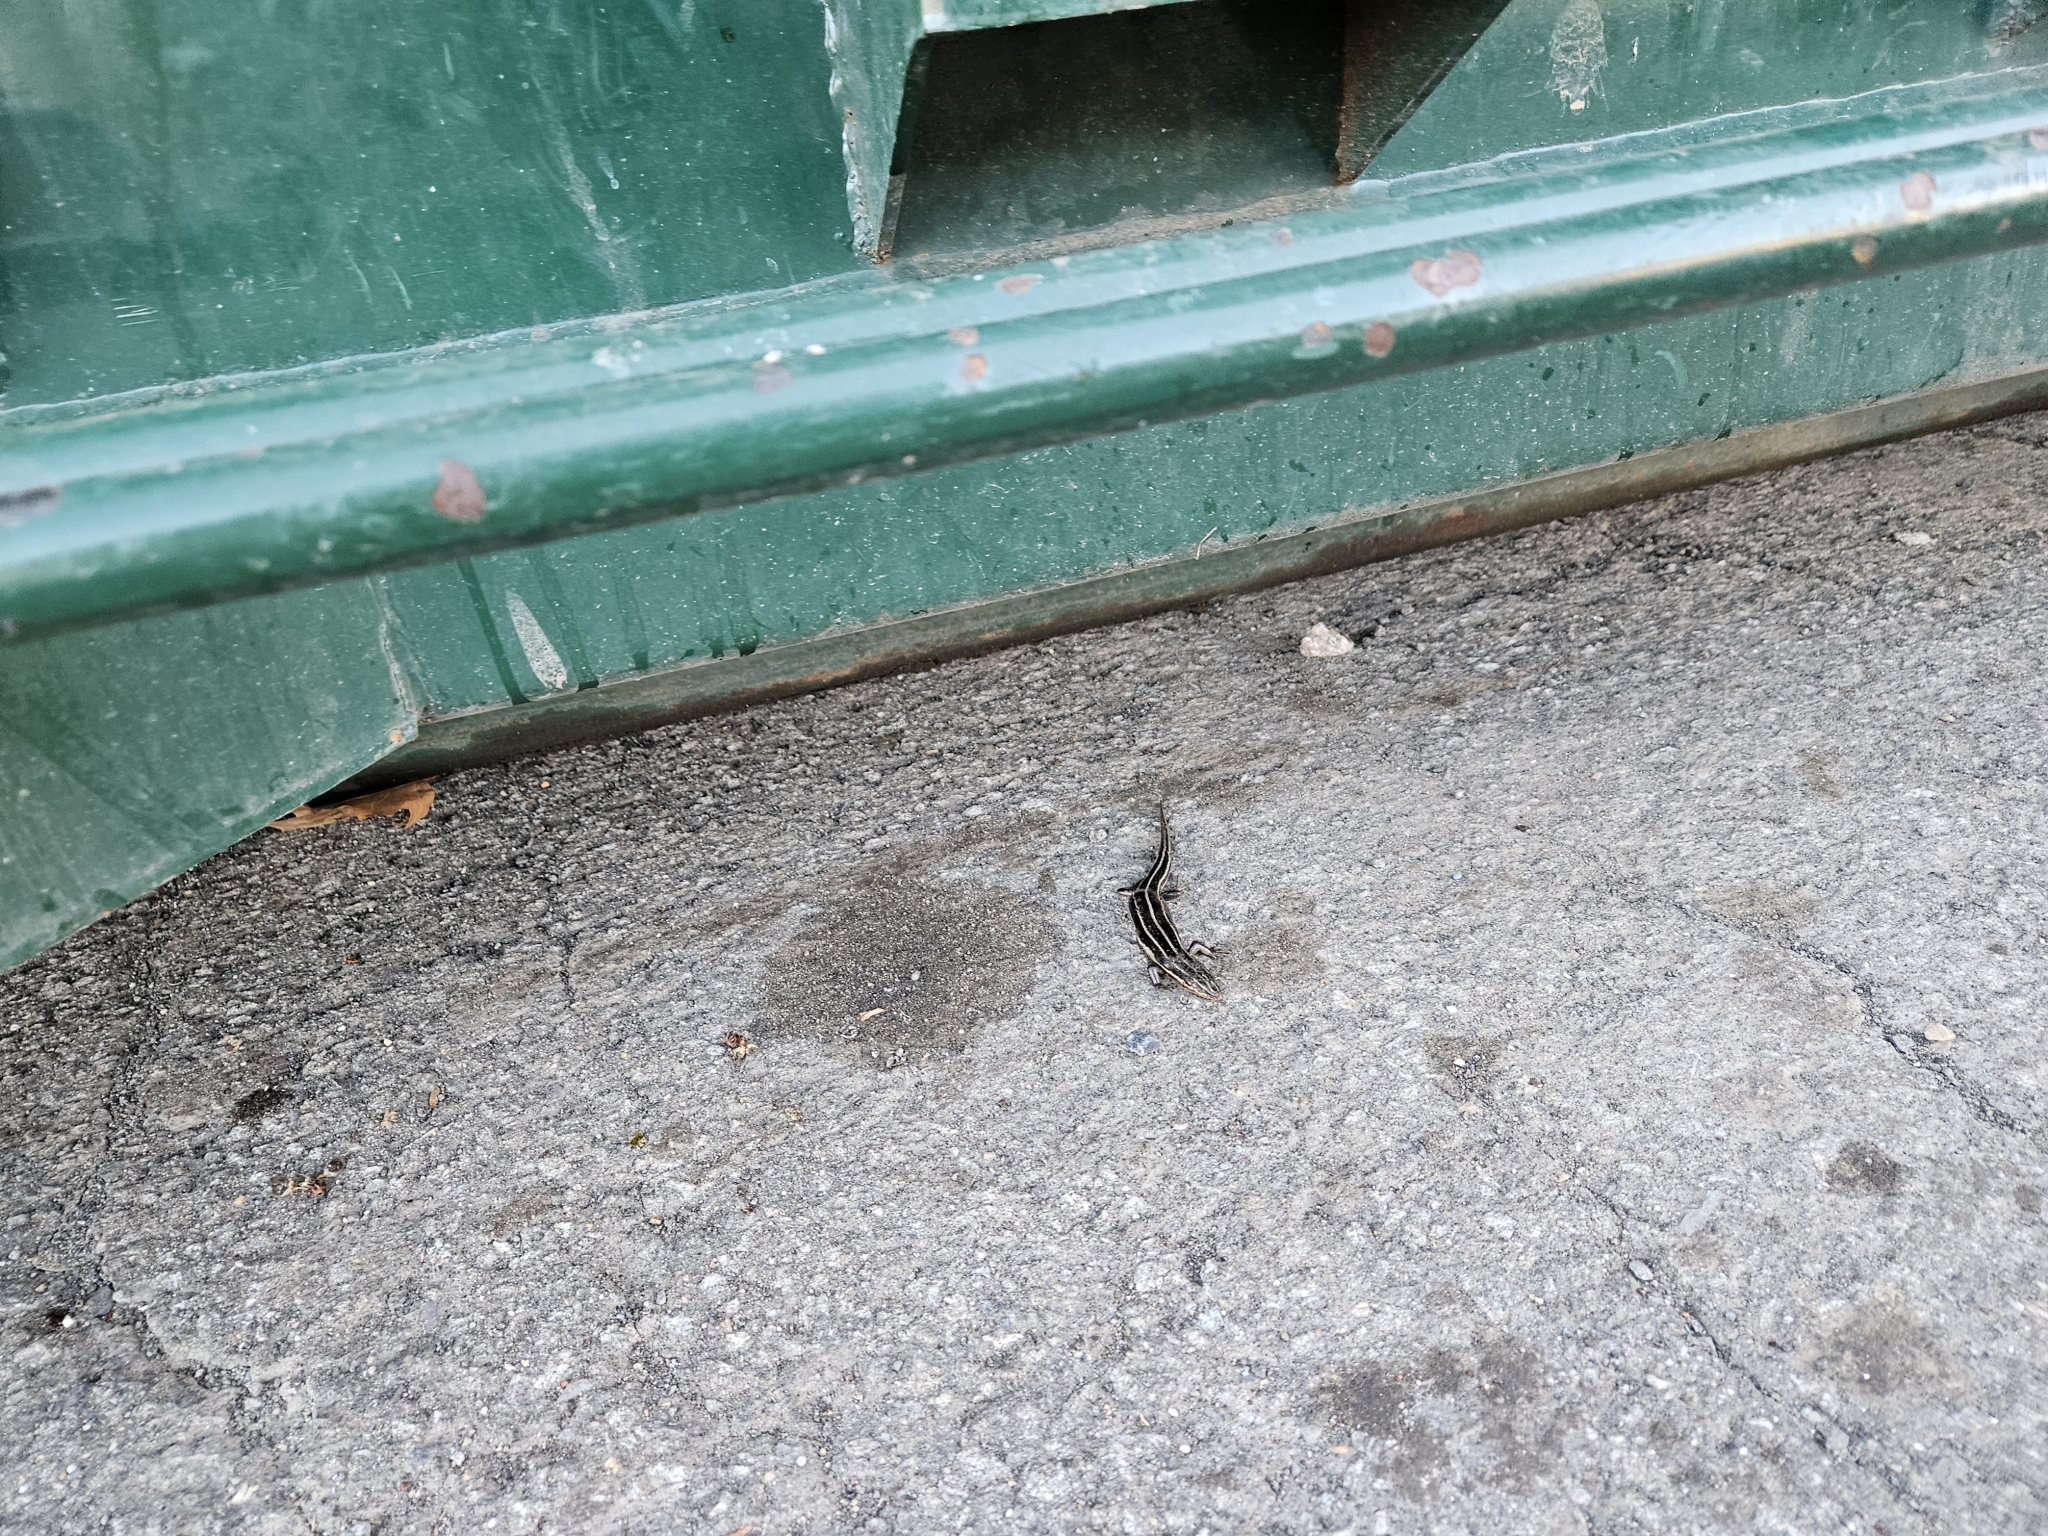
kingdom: Animalia
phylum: Chordata
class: Squamata
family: Scincidae
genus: Plestiodon
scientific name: Plestiodon fasciatus
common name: Five-lined skink
